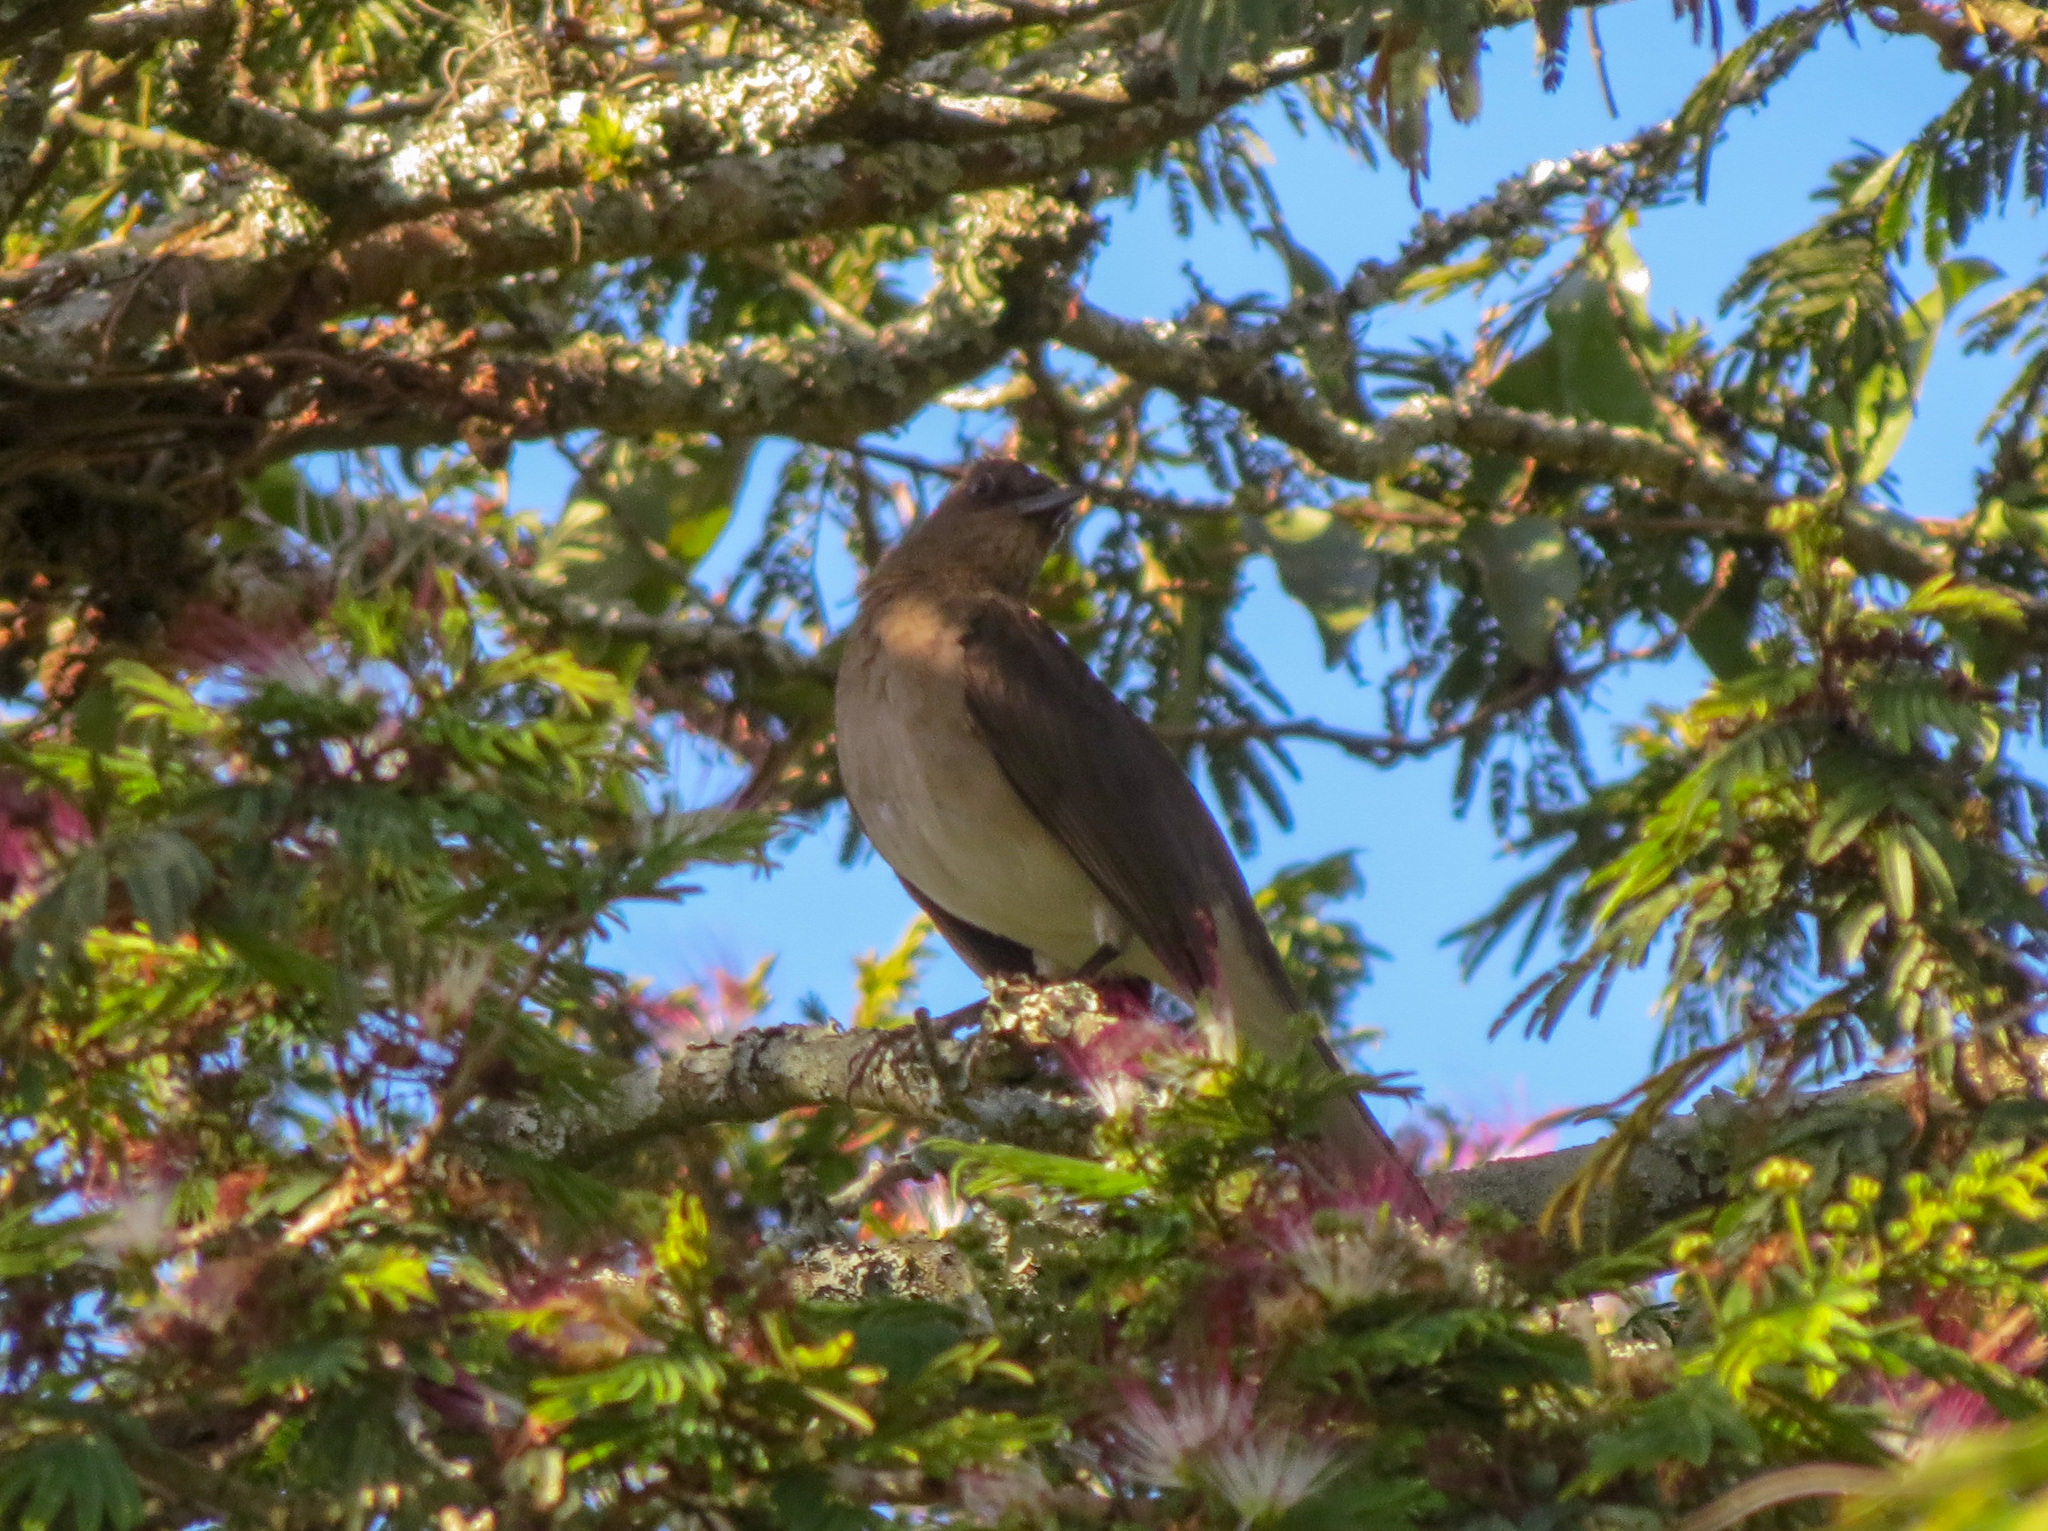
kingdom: Animalia
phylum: Chordata
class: Aves
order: Passeriformes
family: Turdidae
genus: Turdus
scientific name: Turdus ignobilis
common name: Black-billed thrush
